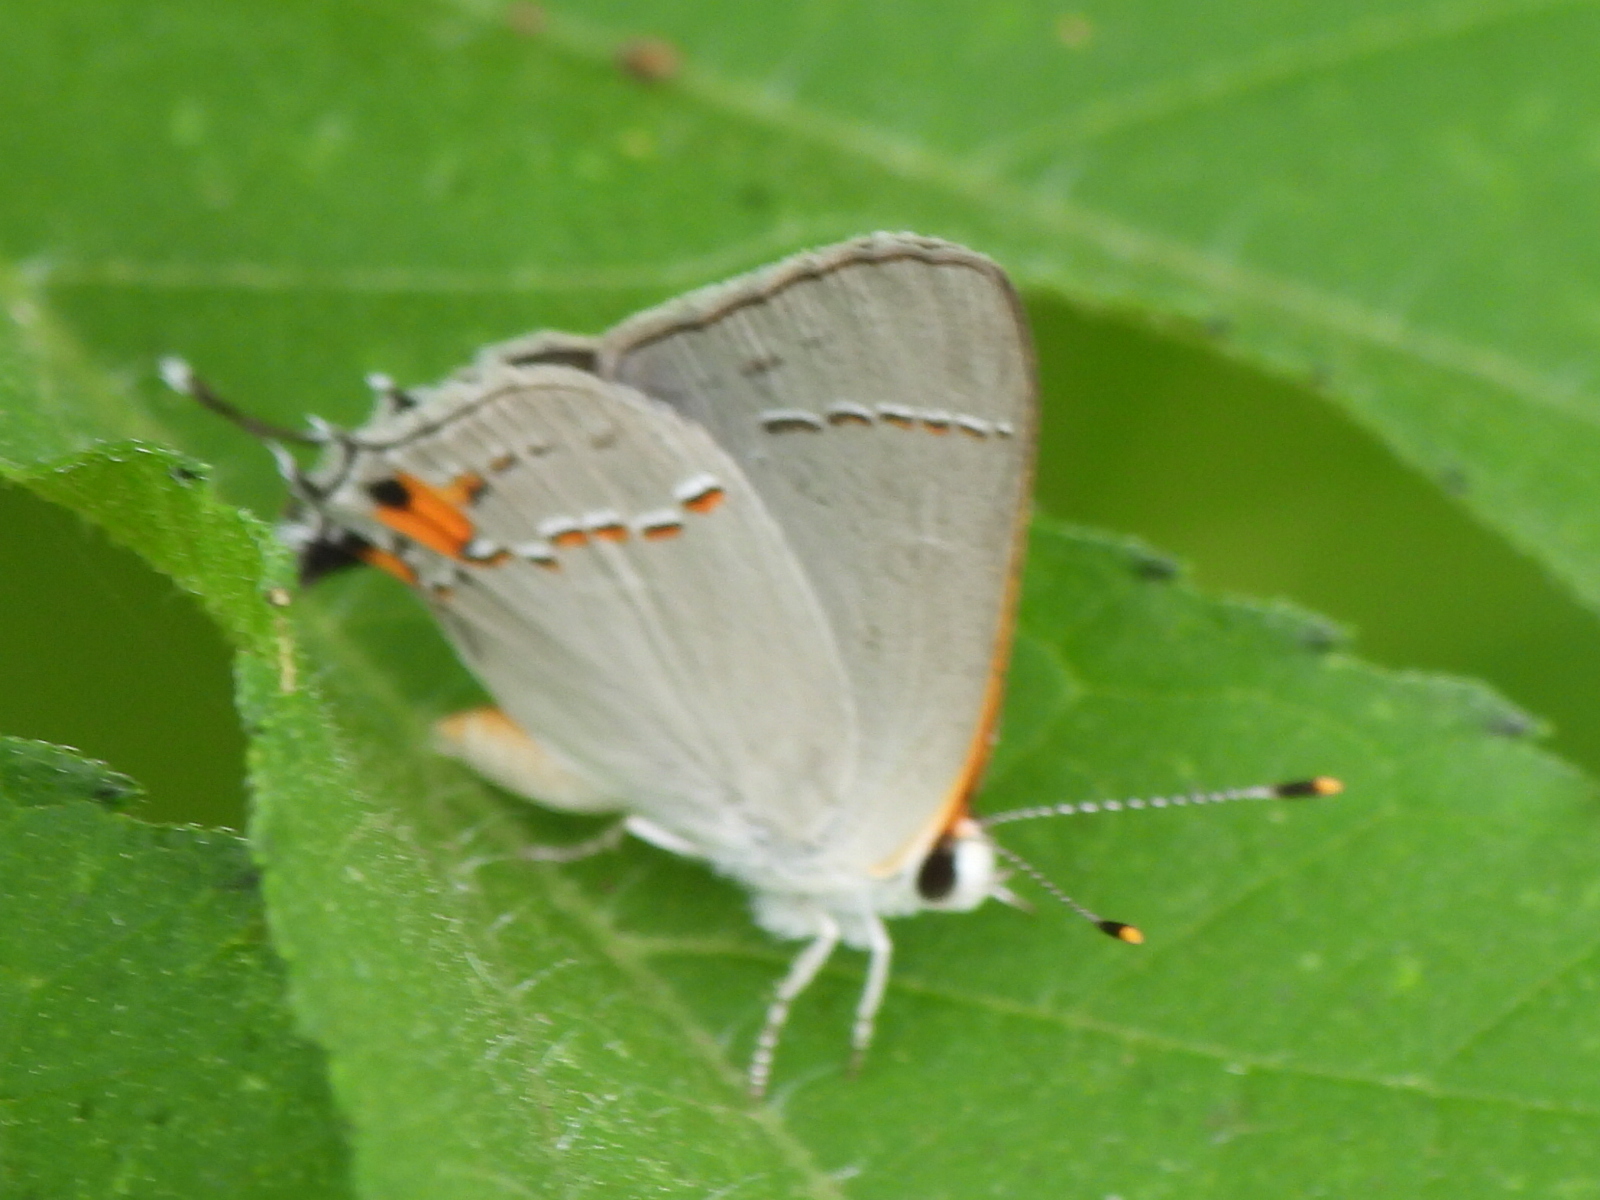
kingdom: Animalia
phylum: Arthropoda
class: Insecta
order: Lepidoptera
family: Lycaenidae
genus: Strymon
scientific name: Strymon melinus
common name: Gray hairstreak
